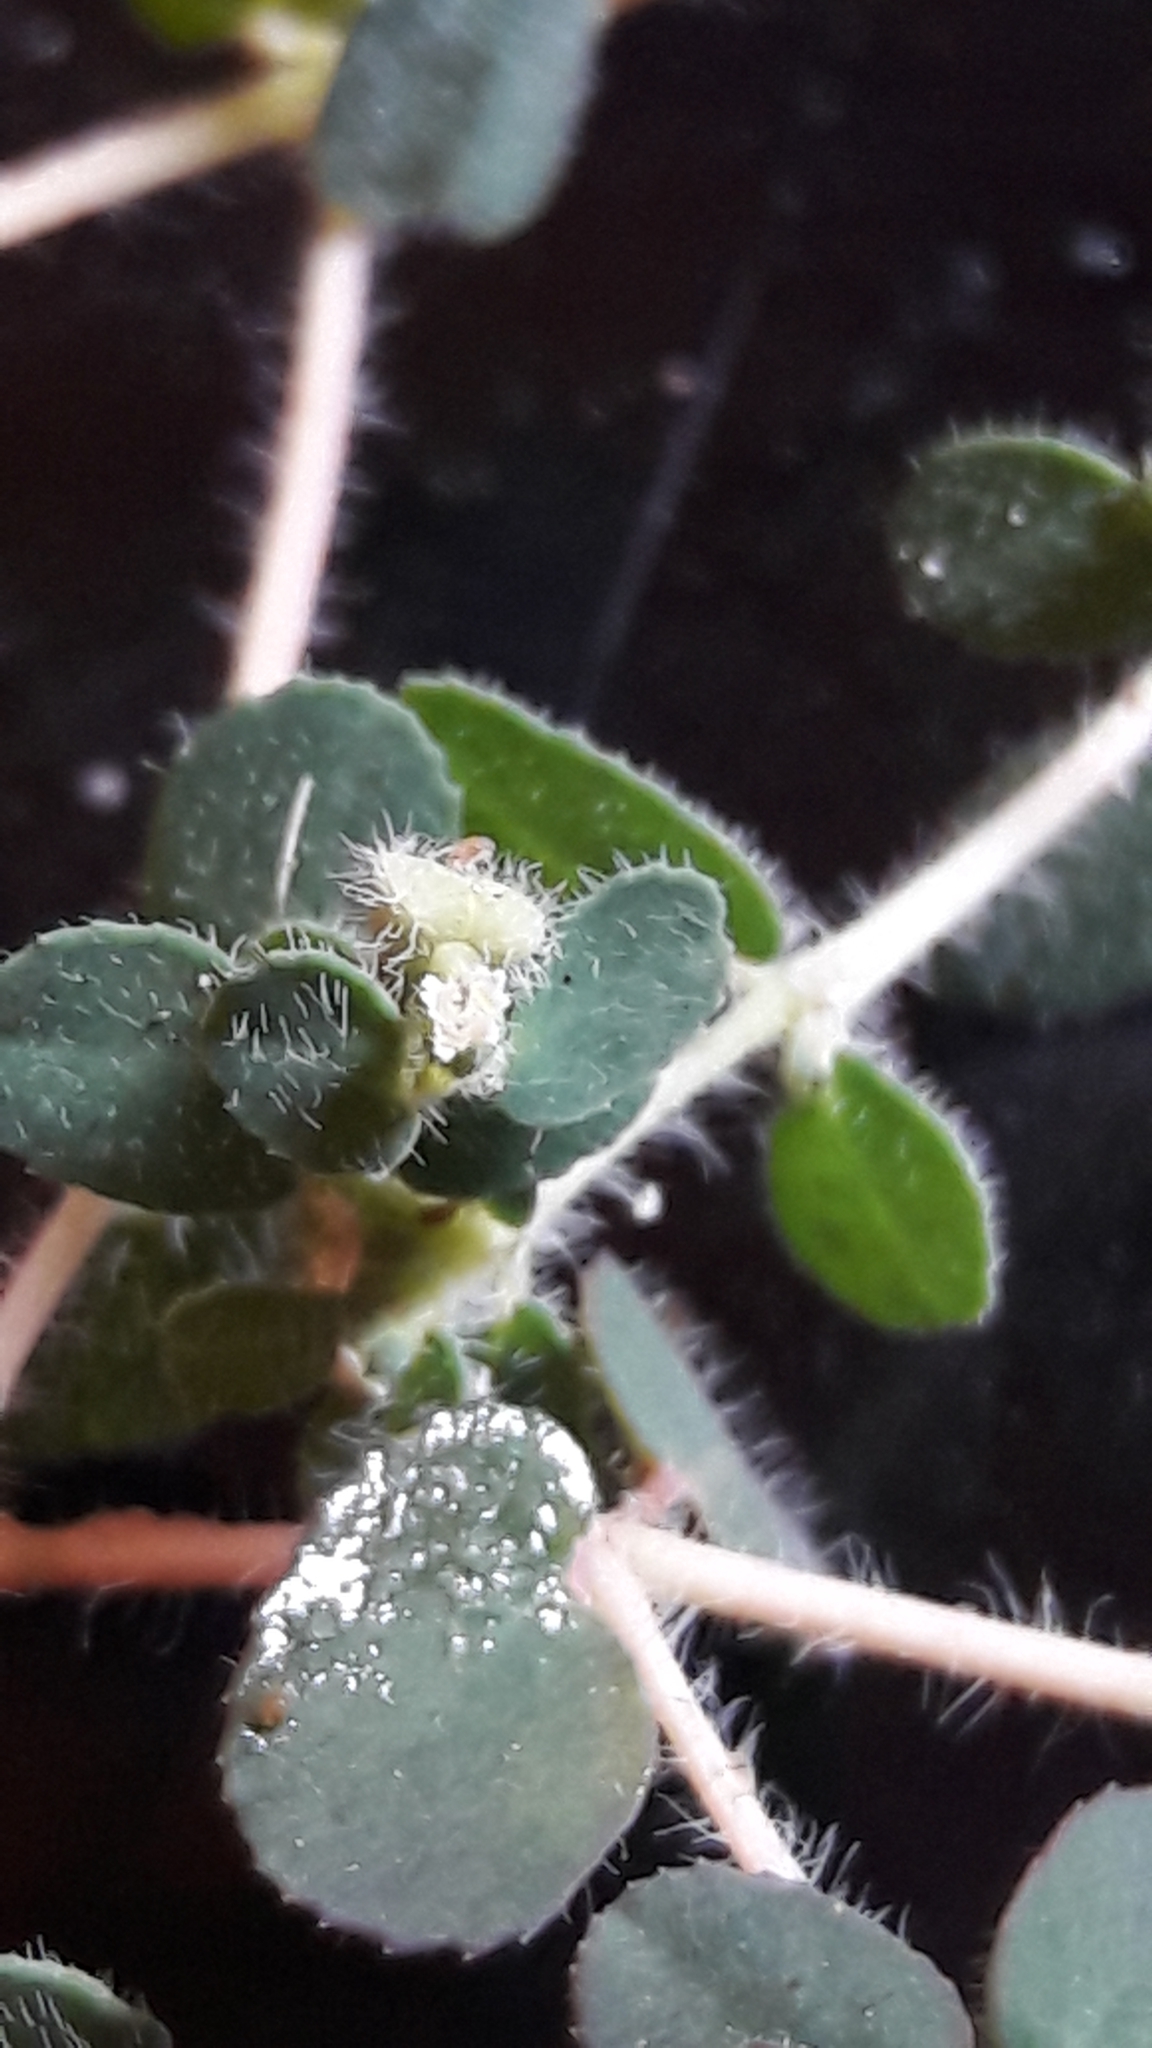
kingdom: Plantae
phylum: Tracheophyta
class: Magnoliopsida
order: Malpighiales
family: Euphorbiaceae
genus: Euphorbia
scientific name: Euphorbia chamaesyce
